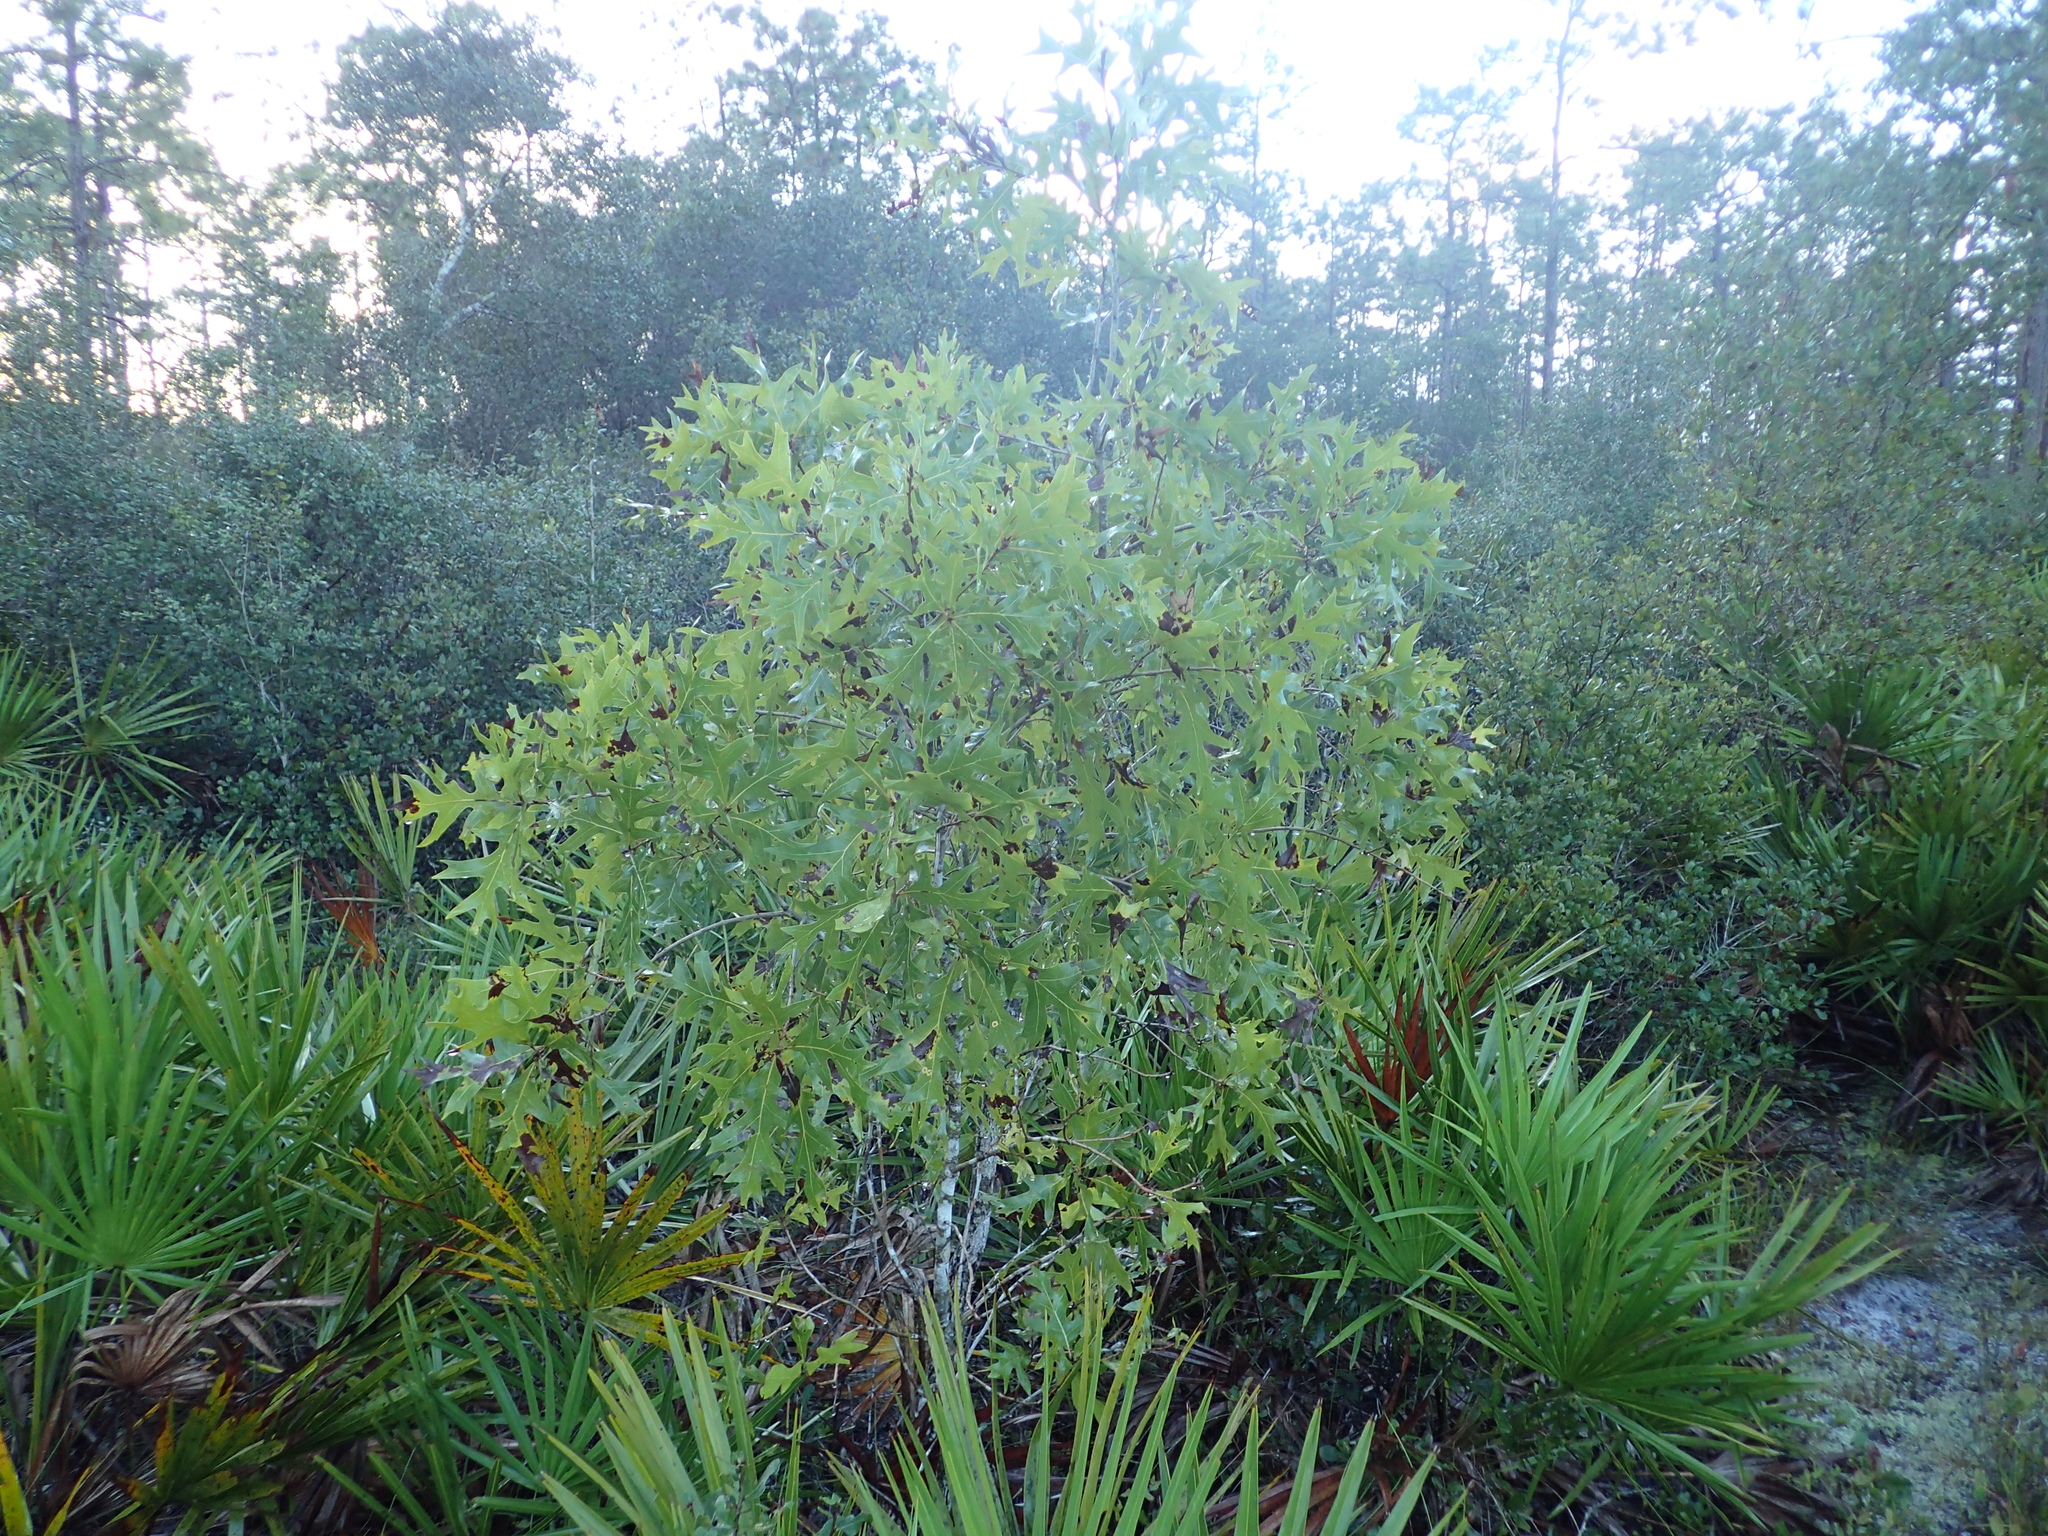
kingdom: Plantae
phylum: Tracheophyta
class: Magnoliopsida
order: Fagales
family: Fagaceae
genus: Quercus
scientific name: Quercus laevis
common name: Turkey oak
